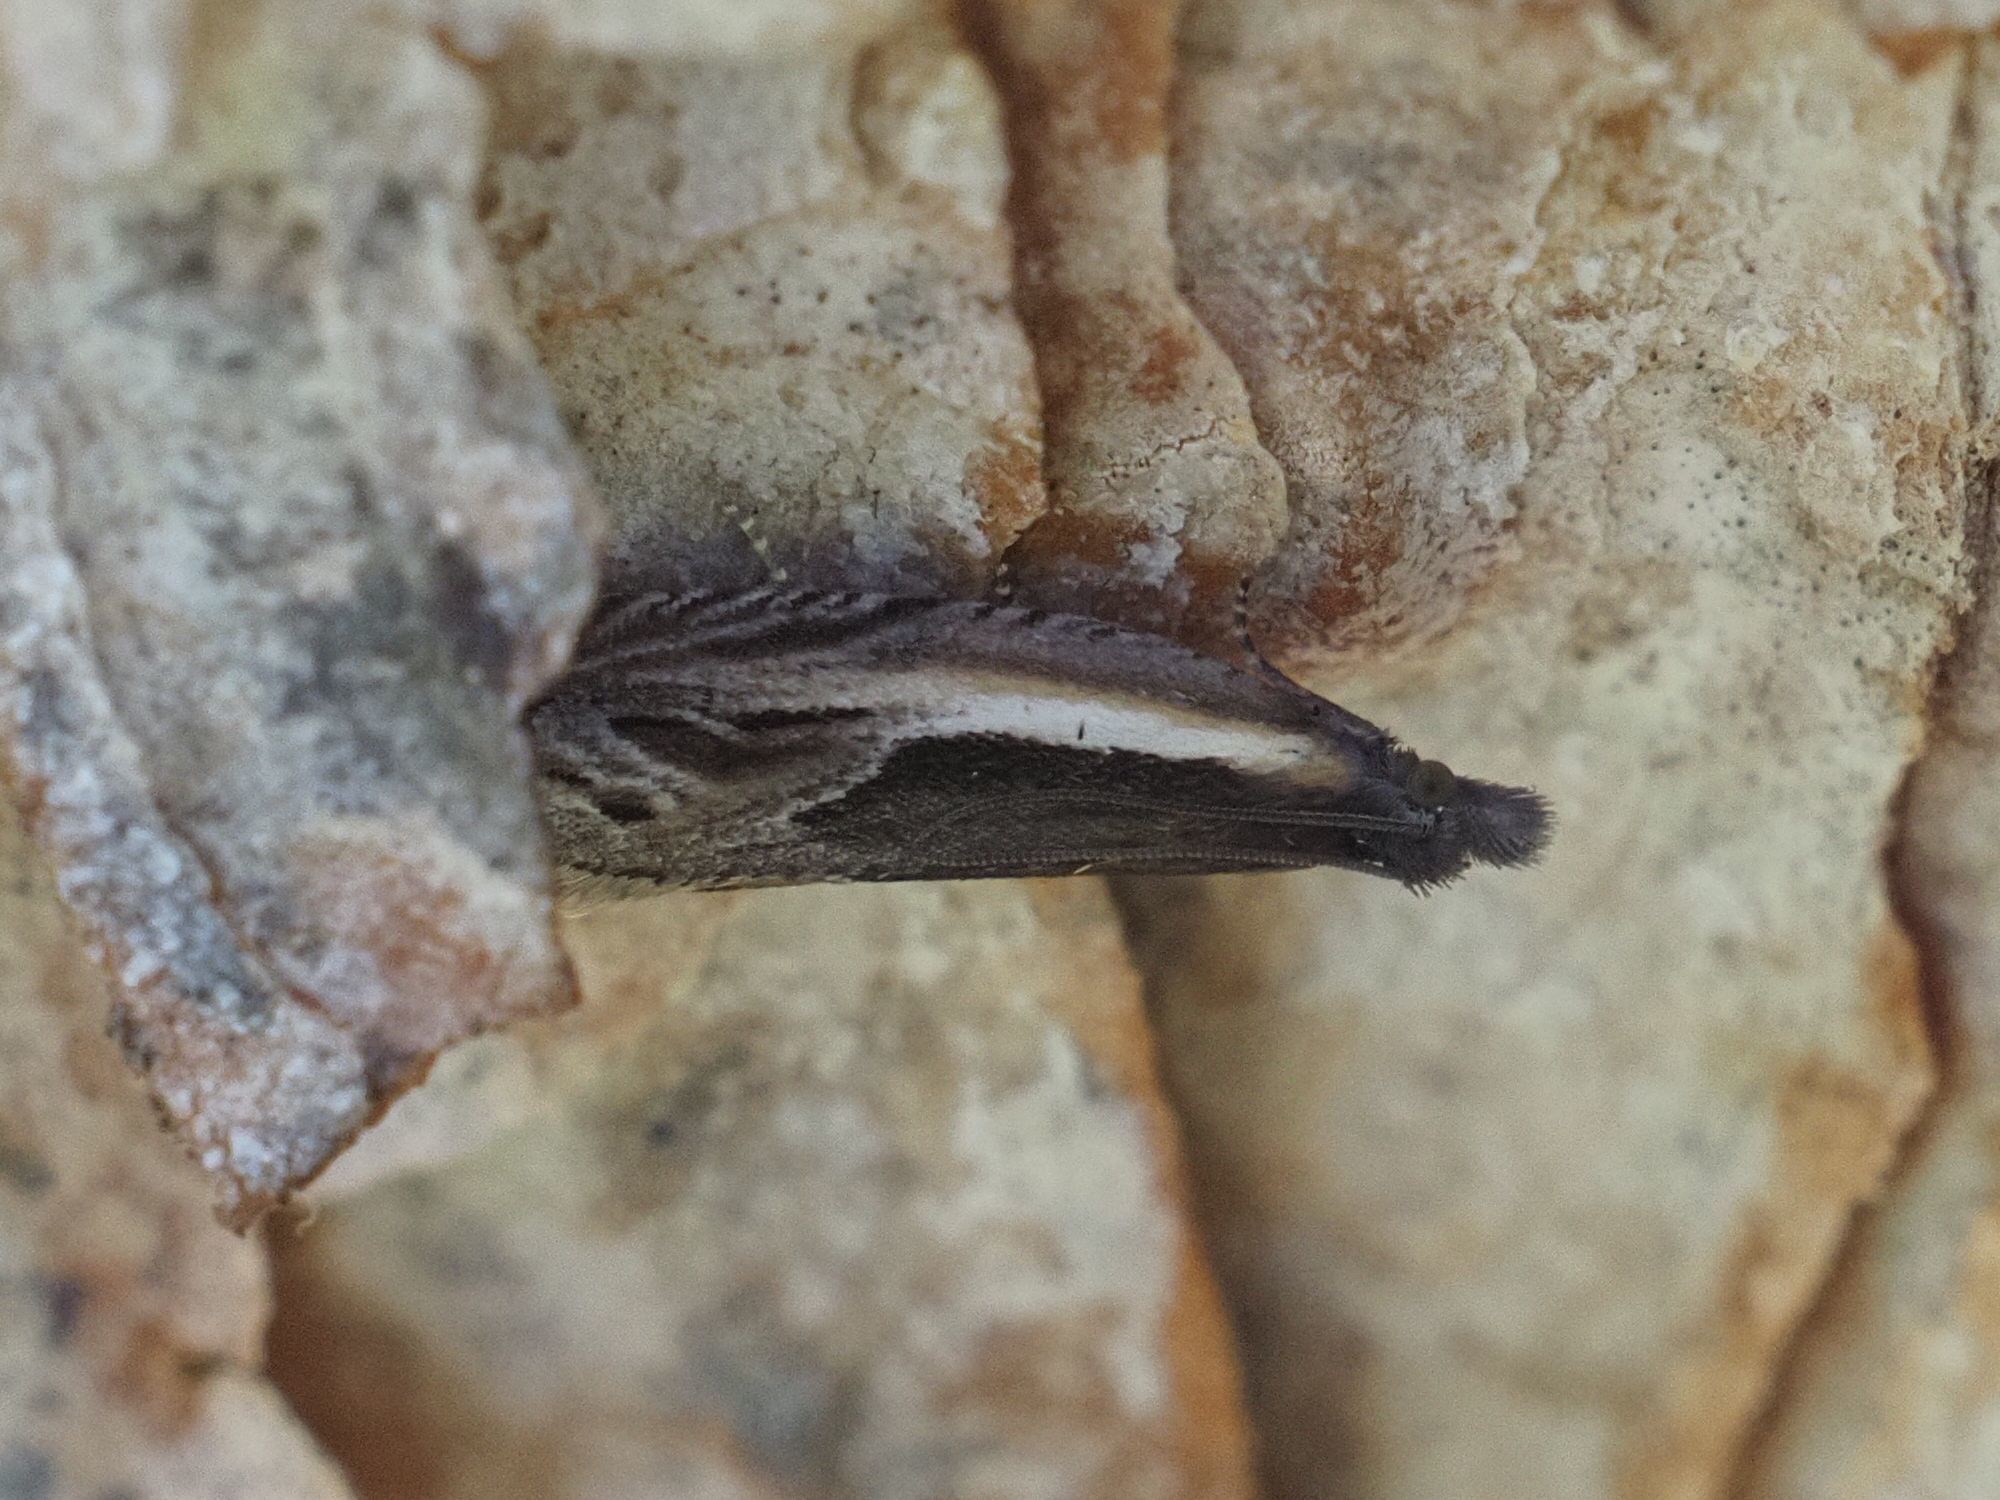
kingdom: Animalia
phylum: Arthropoda
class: Insecta
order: Lepidoptera
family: Tortricidae
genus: Ancylis
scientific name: Ancylis apicella
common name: Hook-tipped roller
